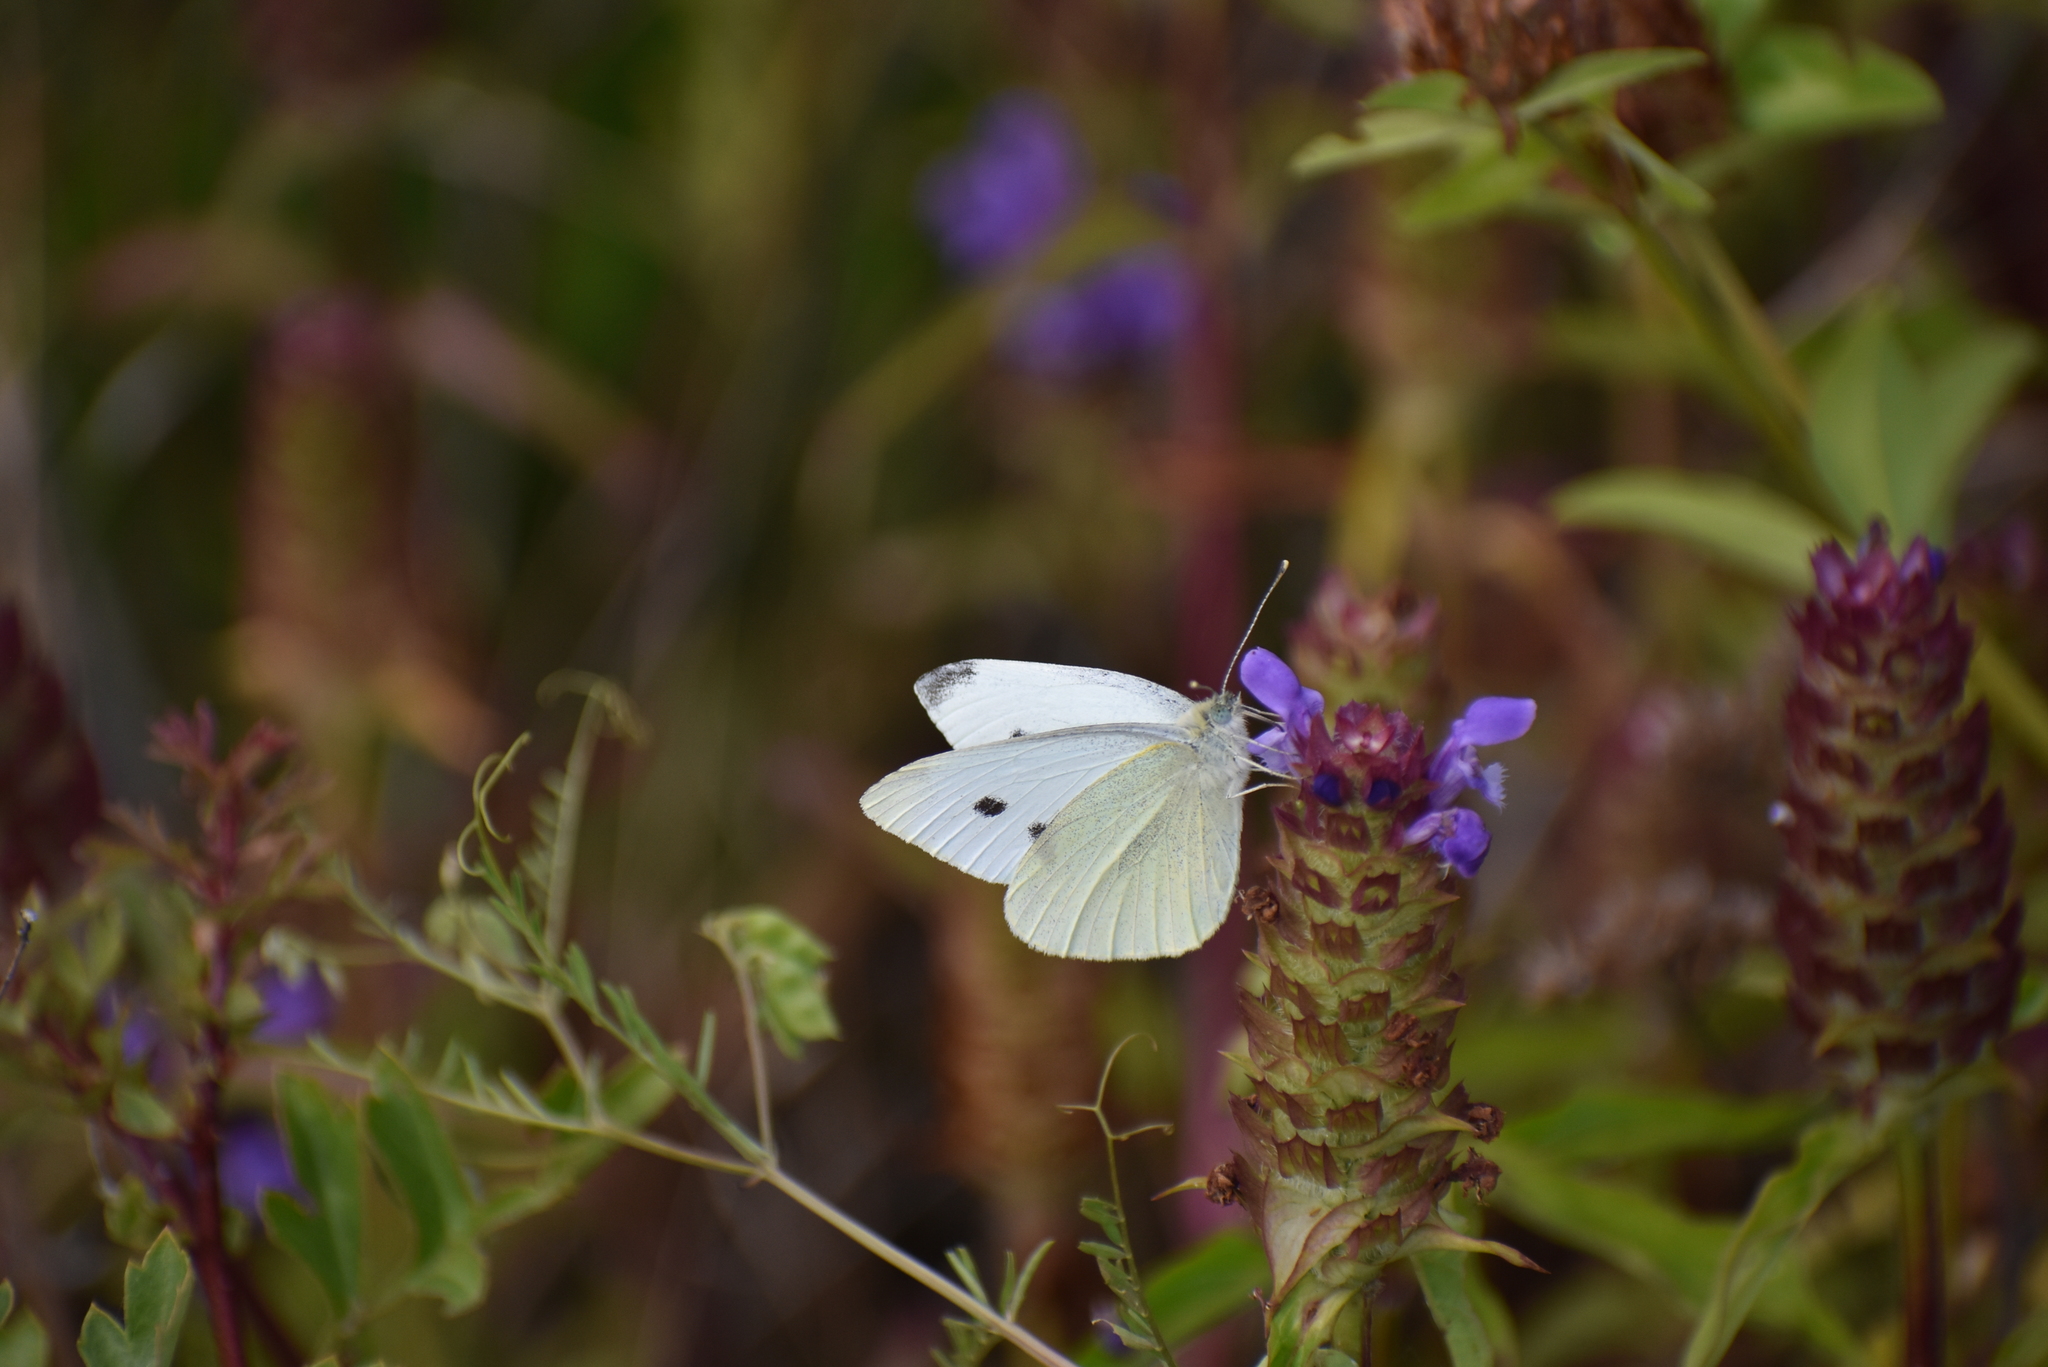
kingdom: Animalia
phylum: Arthropoda
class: Insecta
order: Lepidoptera
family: Pieridae
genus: Pieris
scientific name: Pieris rapae
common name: Small white
